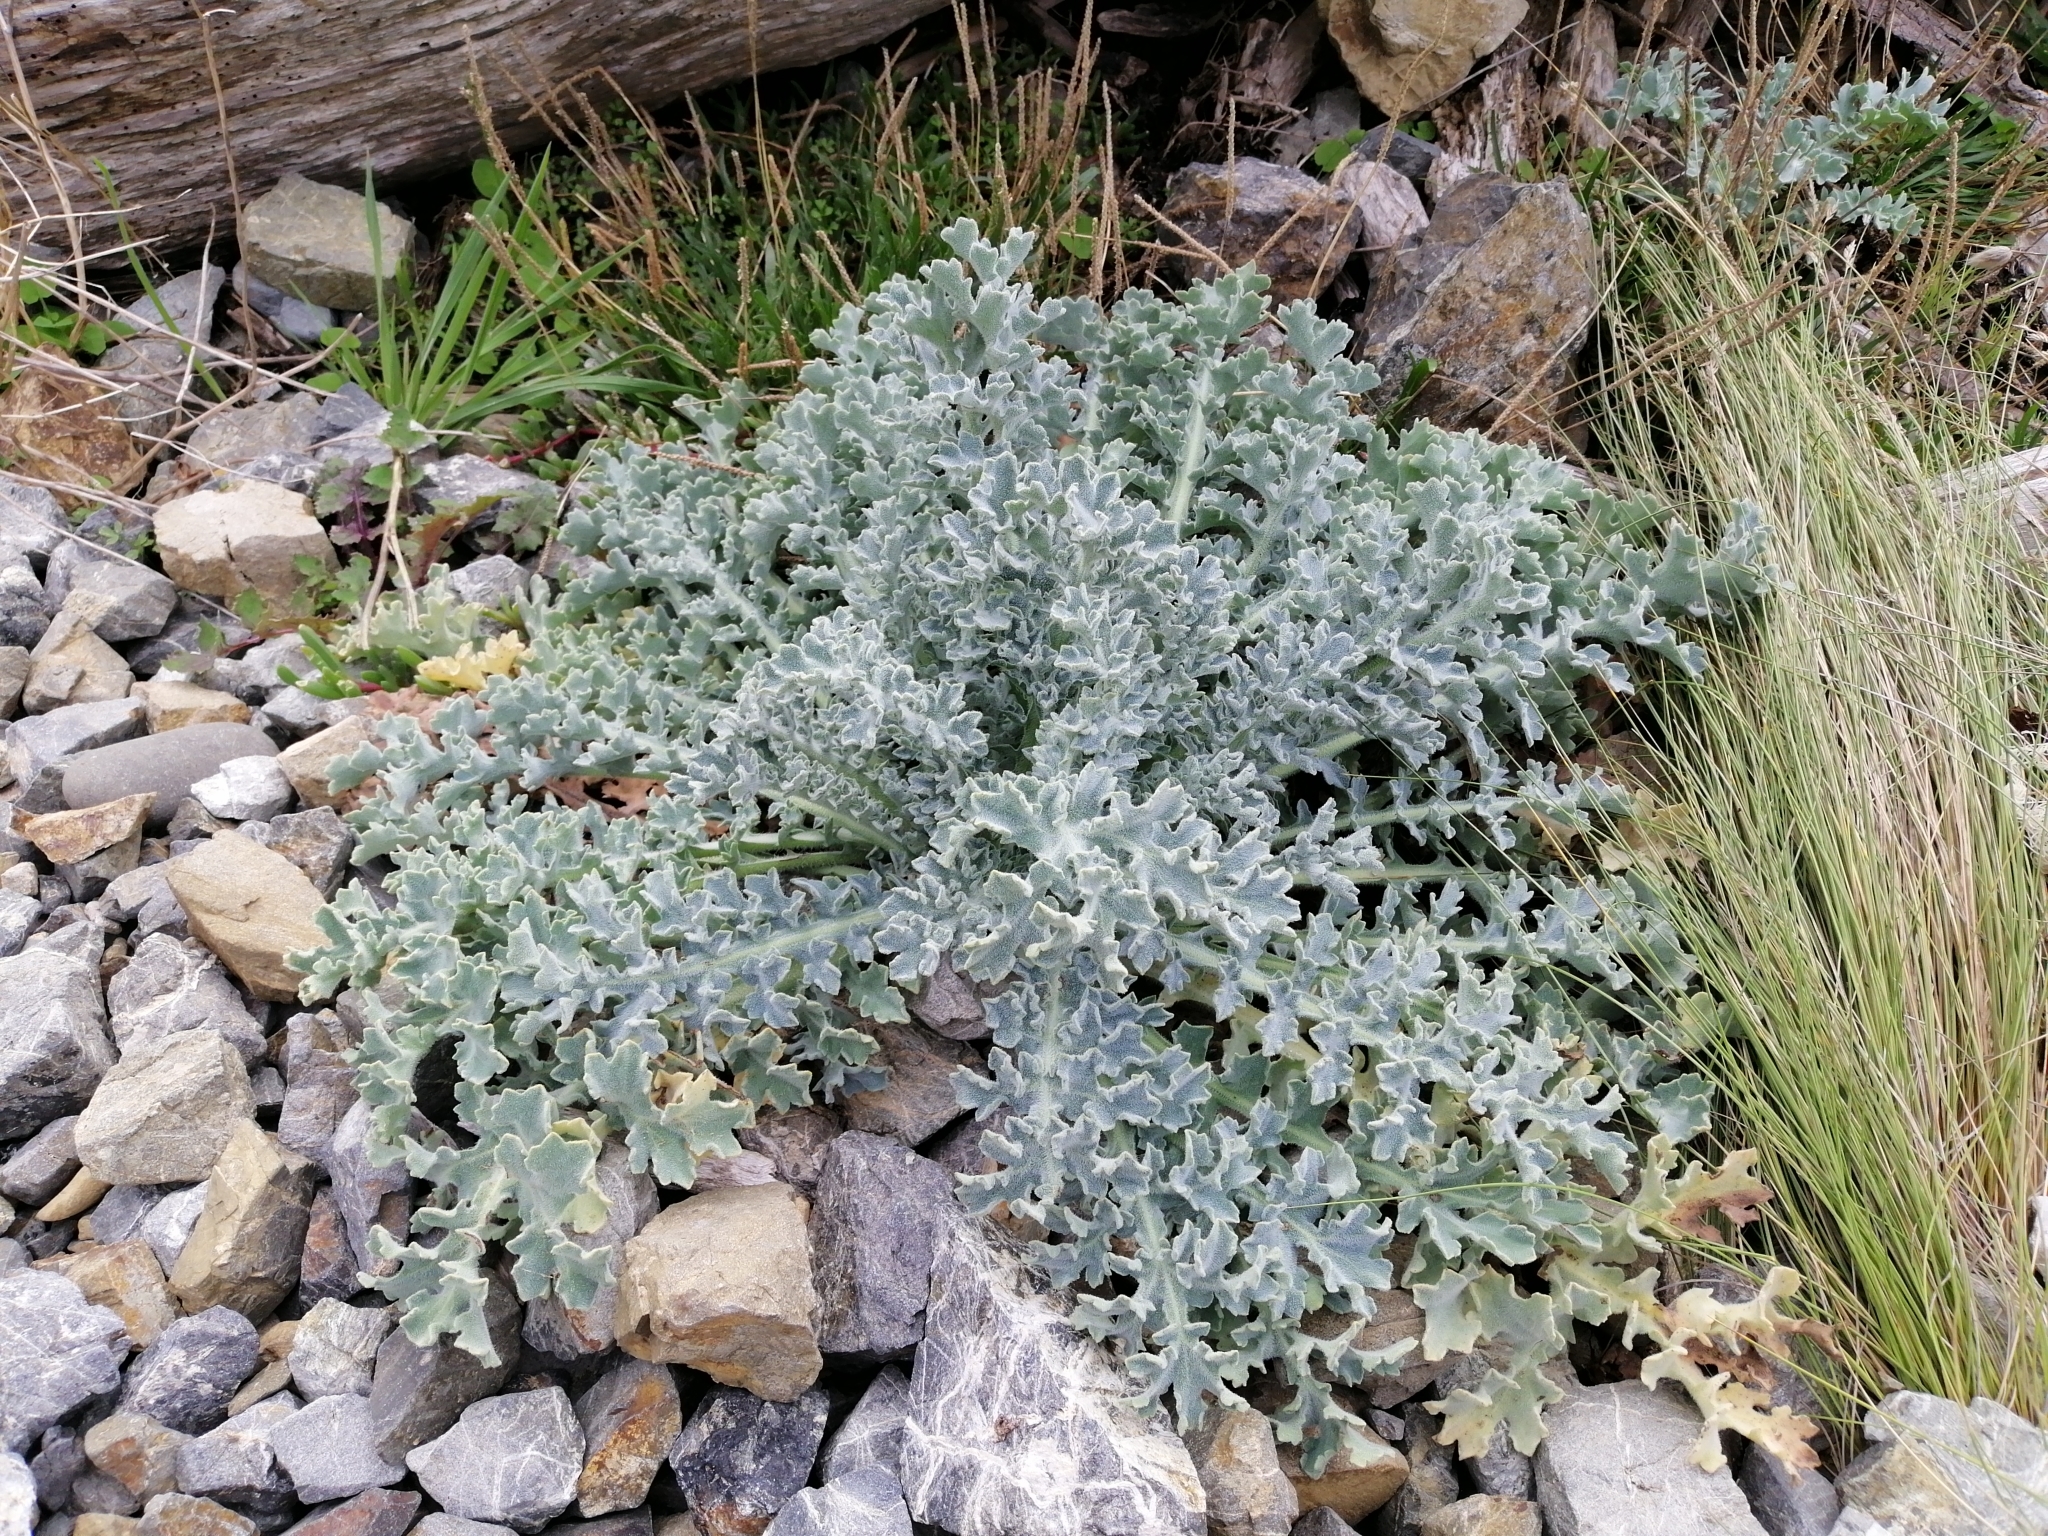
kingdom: Plantae
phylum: Tracheophyta
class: Magnoliopsida
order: Ranunculales
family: Papaveraceae
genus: Glaucium
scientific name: Glaucium flavum
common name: Yellow horned-poppy
